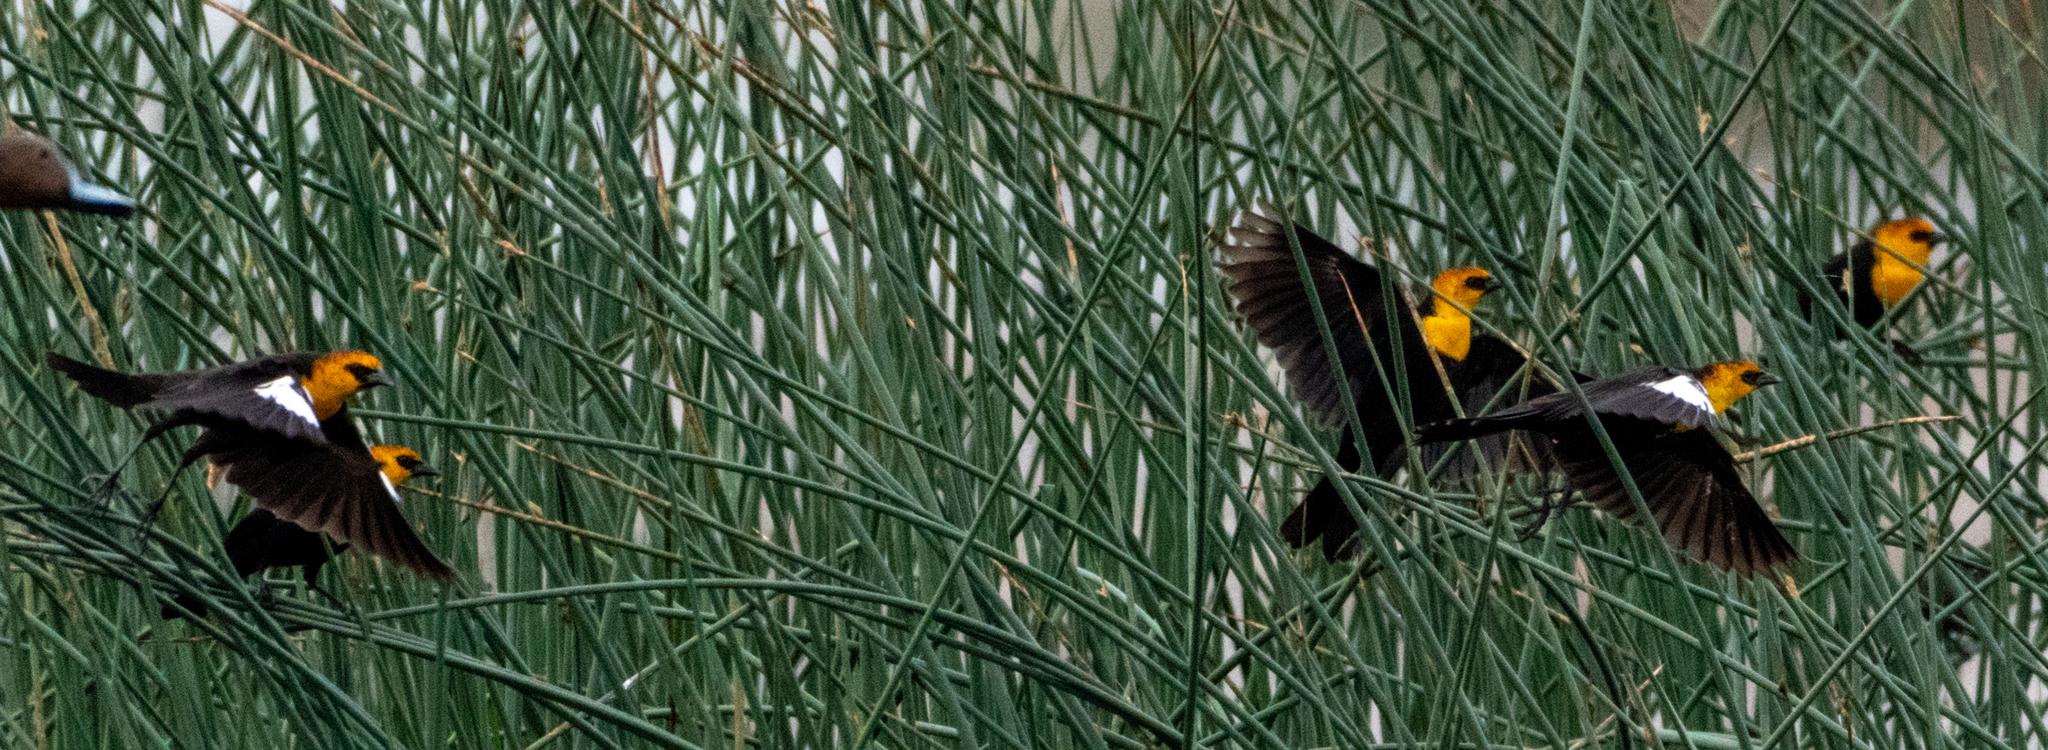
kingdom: Animalia
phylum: Chordata
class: Aves
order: Passeriformes
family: Icteridae
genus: Xanthocephalus
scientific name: Xanthocephalus xanthocephalus
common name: Yellow-headed blackbird
